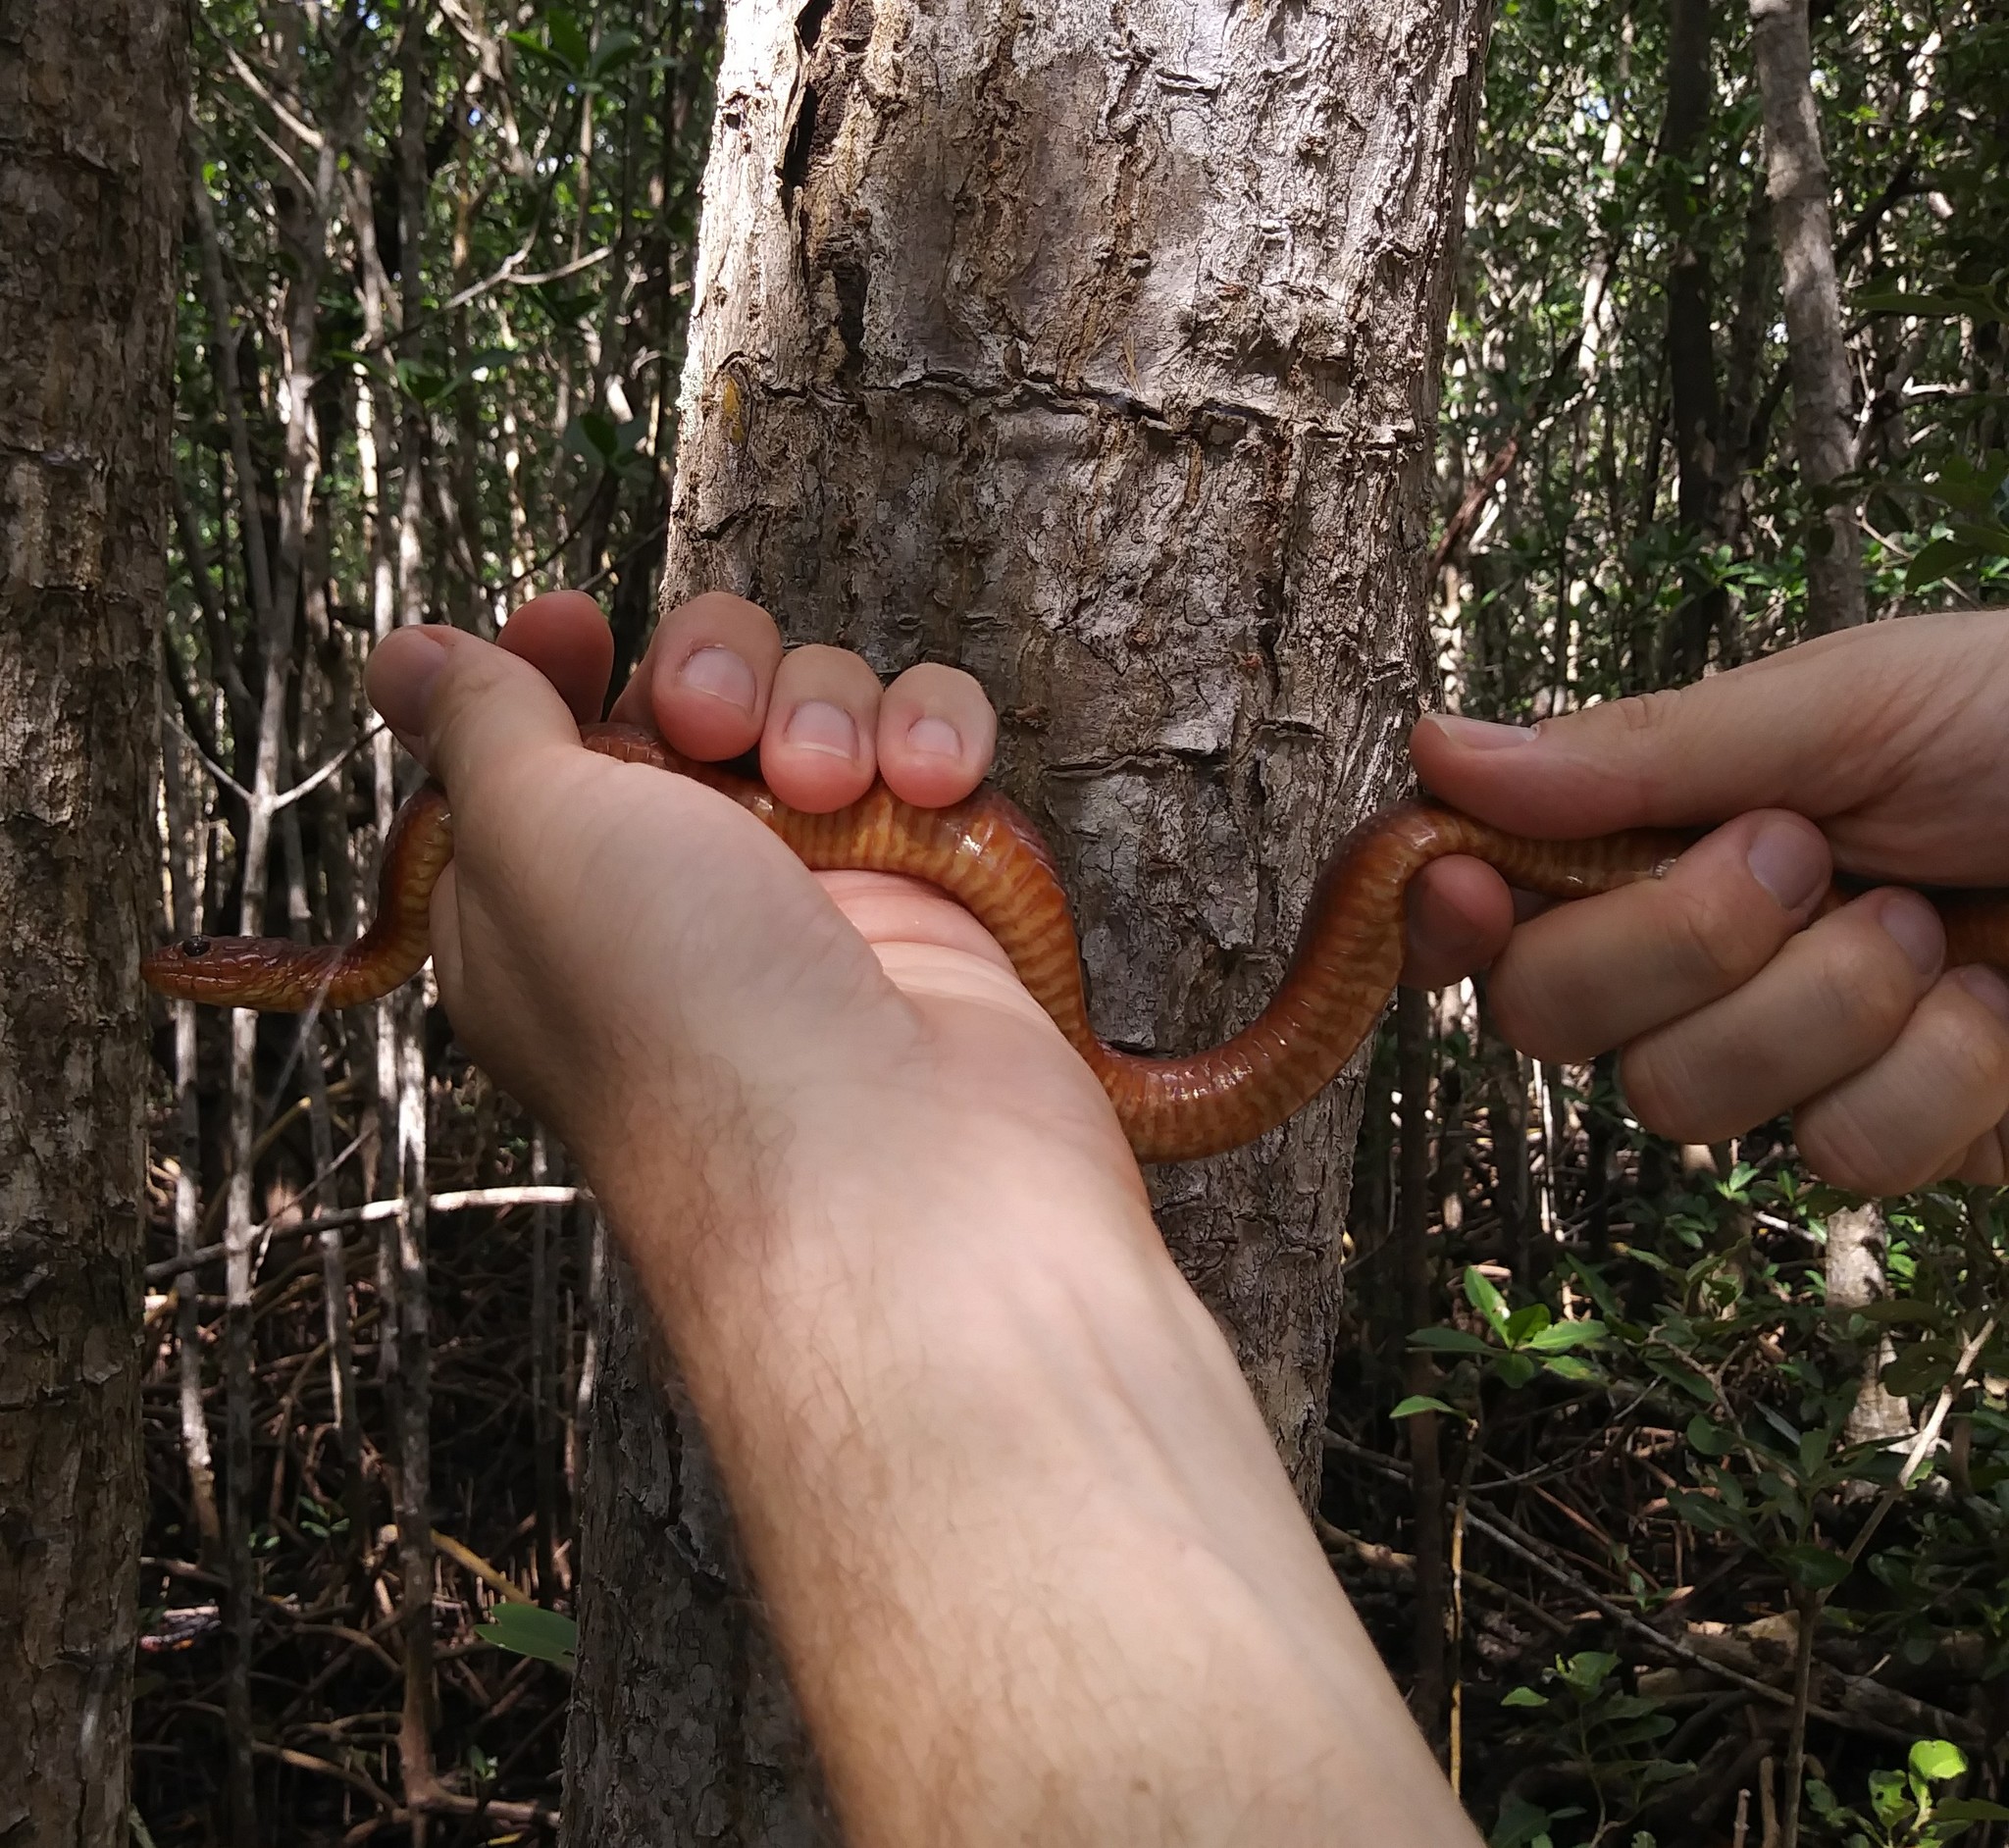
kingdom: Animalia
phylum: Chordata
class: Squamata
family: Colubridae
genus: Nerodia
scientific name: Nerodia clarkii
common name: Atlantic saltmarsh snake
